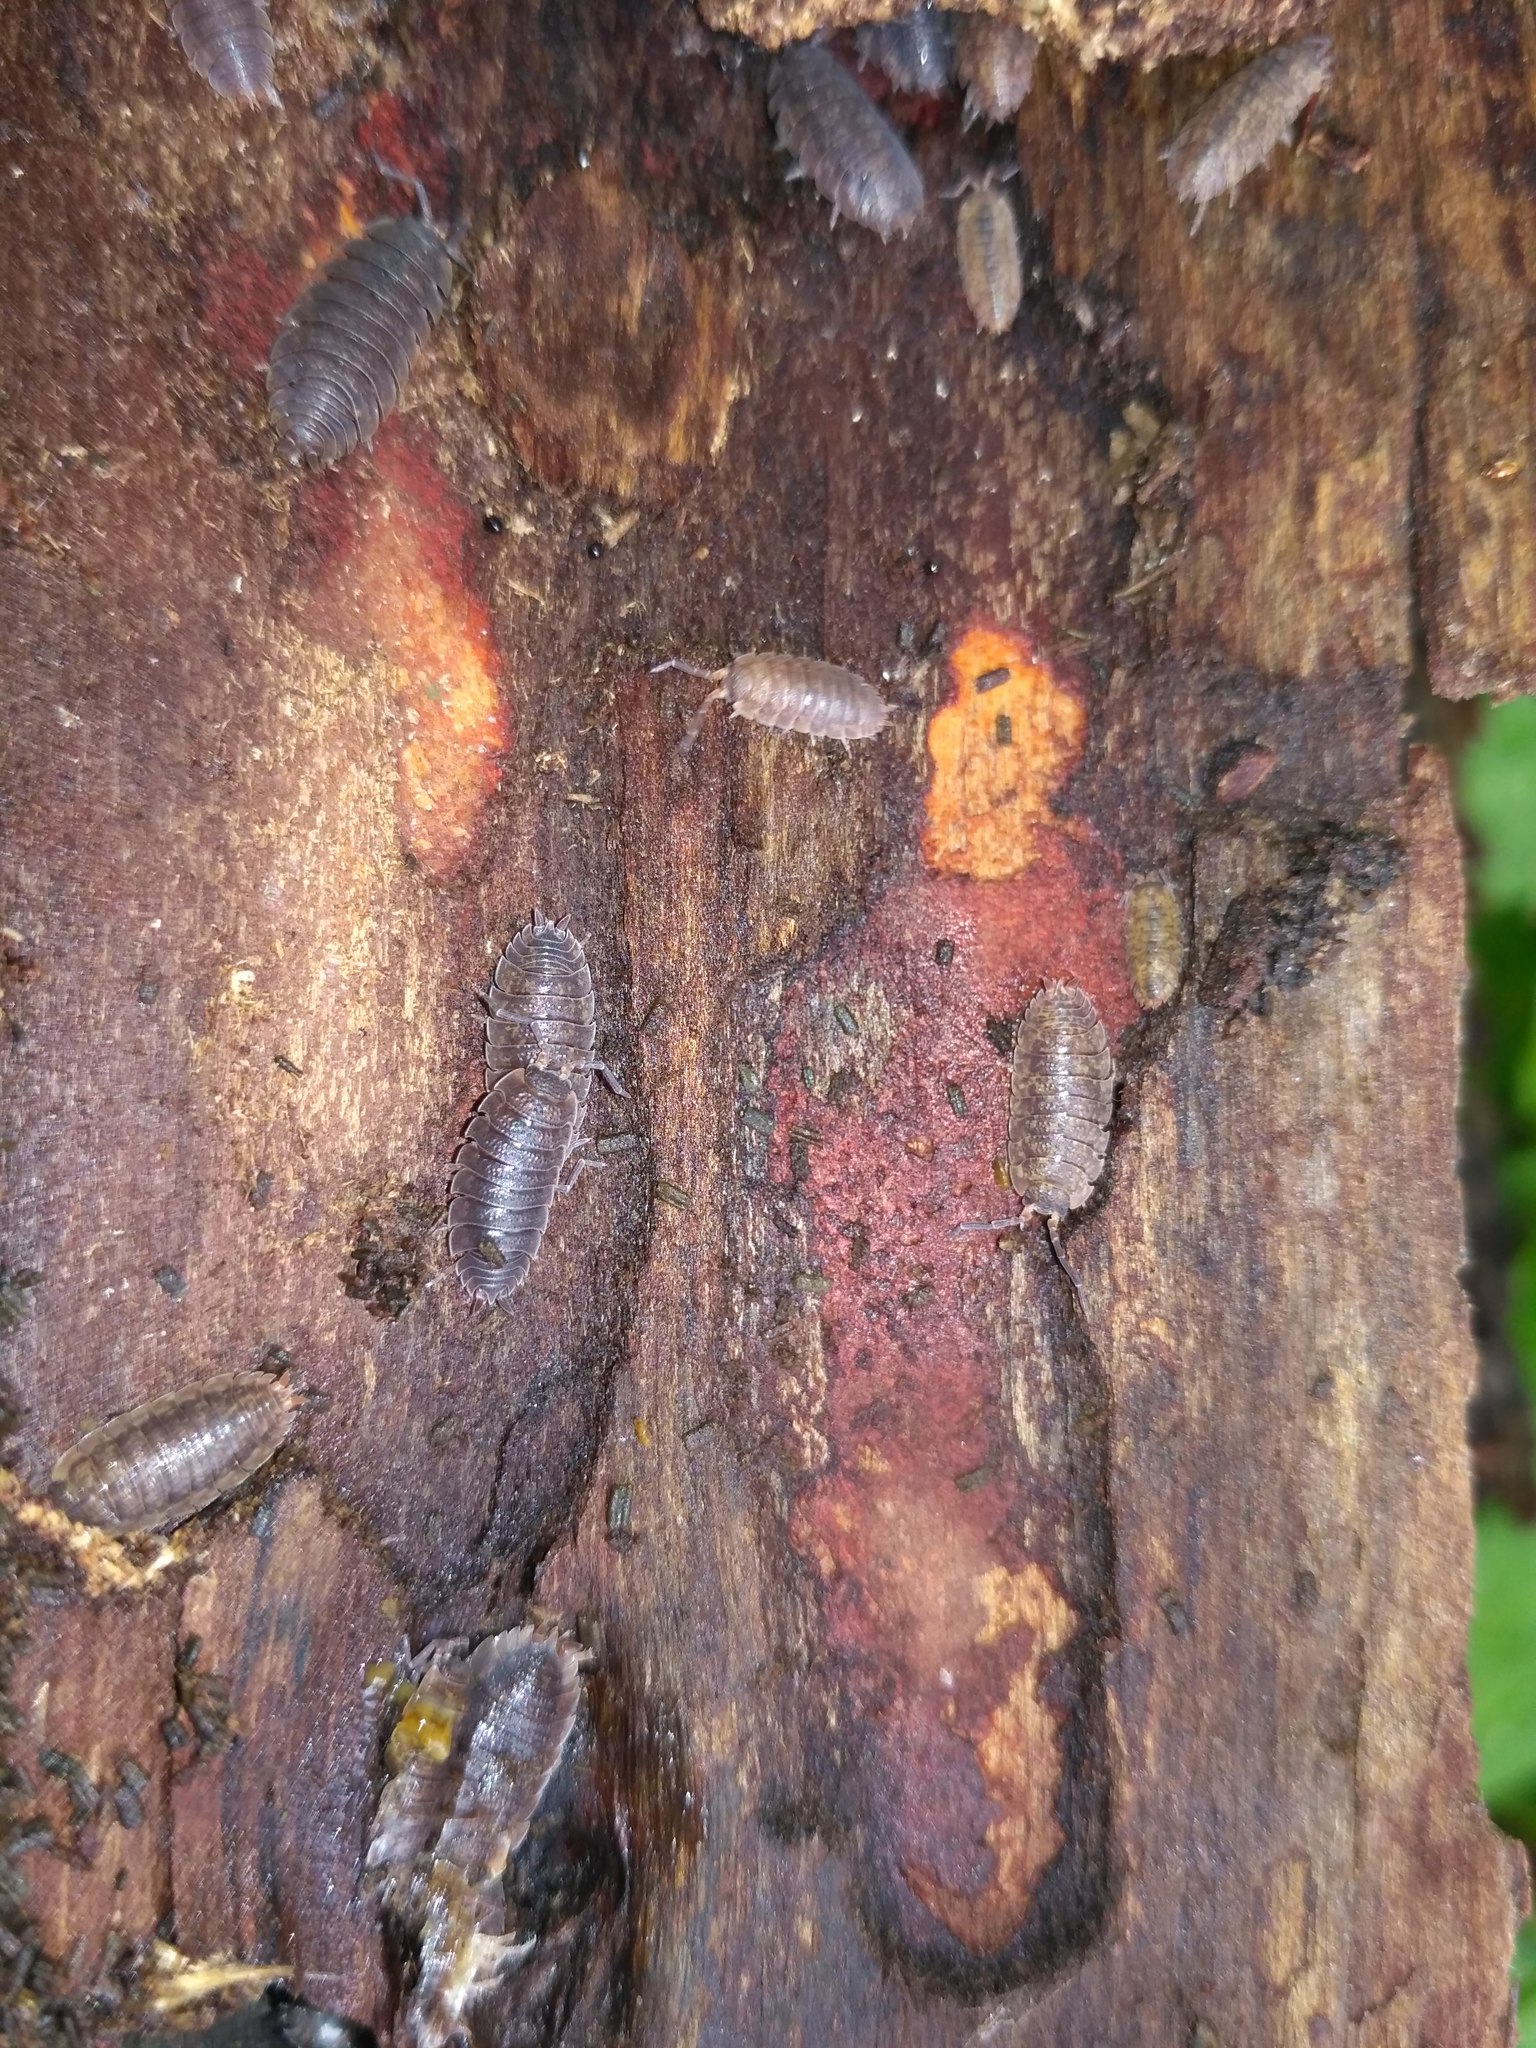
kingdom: Animalia
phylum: Arthropoda
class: Malacostraca
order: Isopoda
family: Porcellionidae
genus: Porcellio
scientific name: Porcellio scaber
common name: Common rough woodlouse
